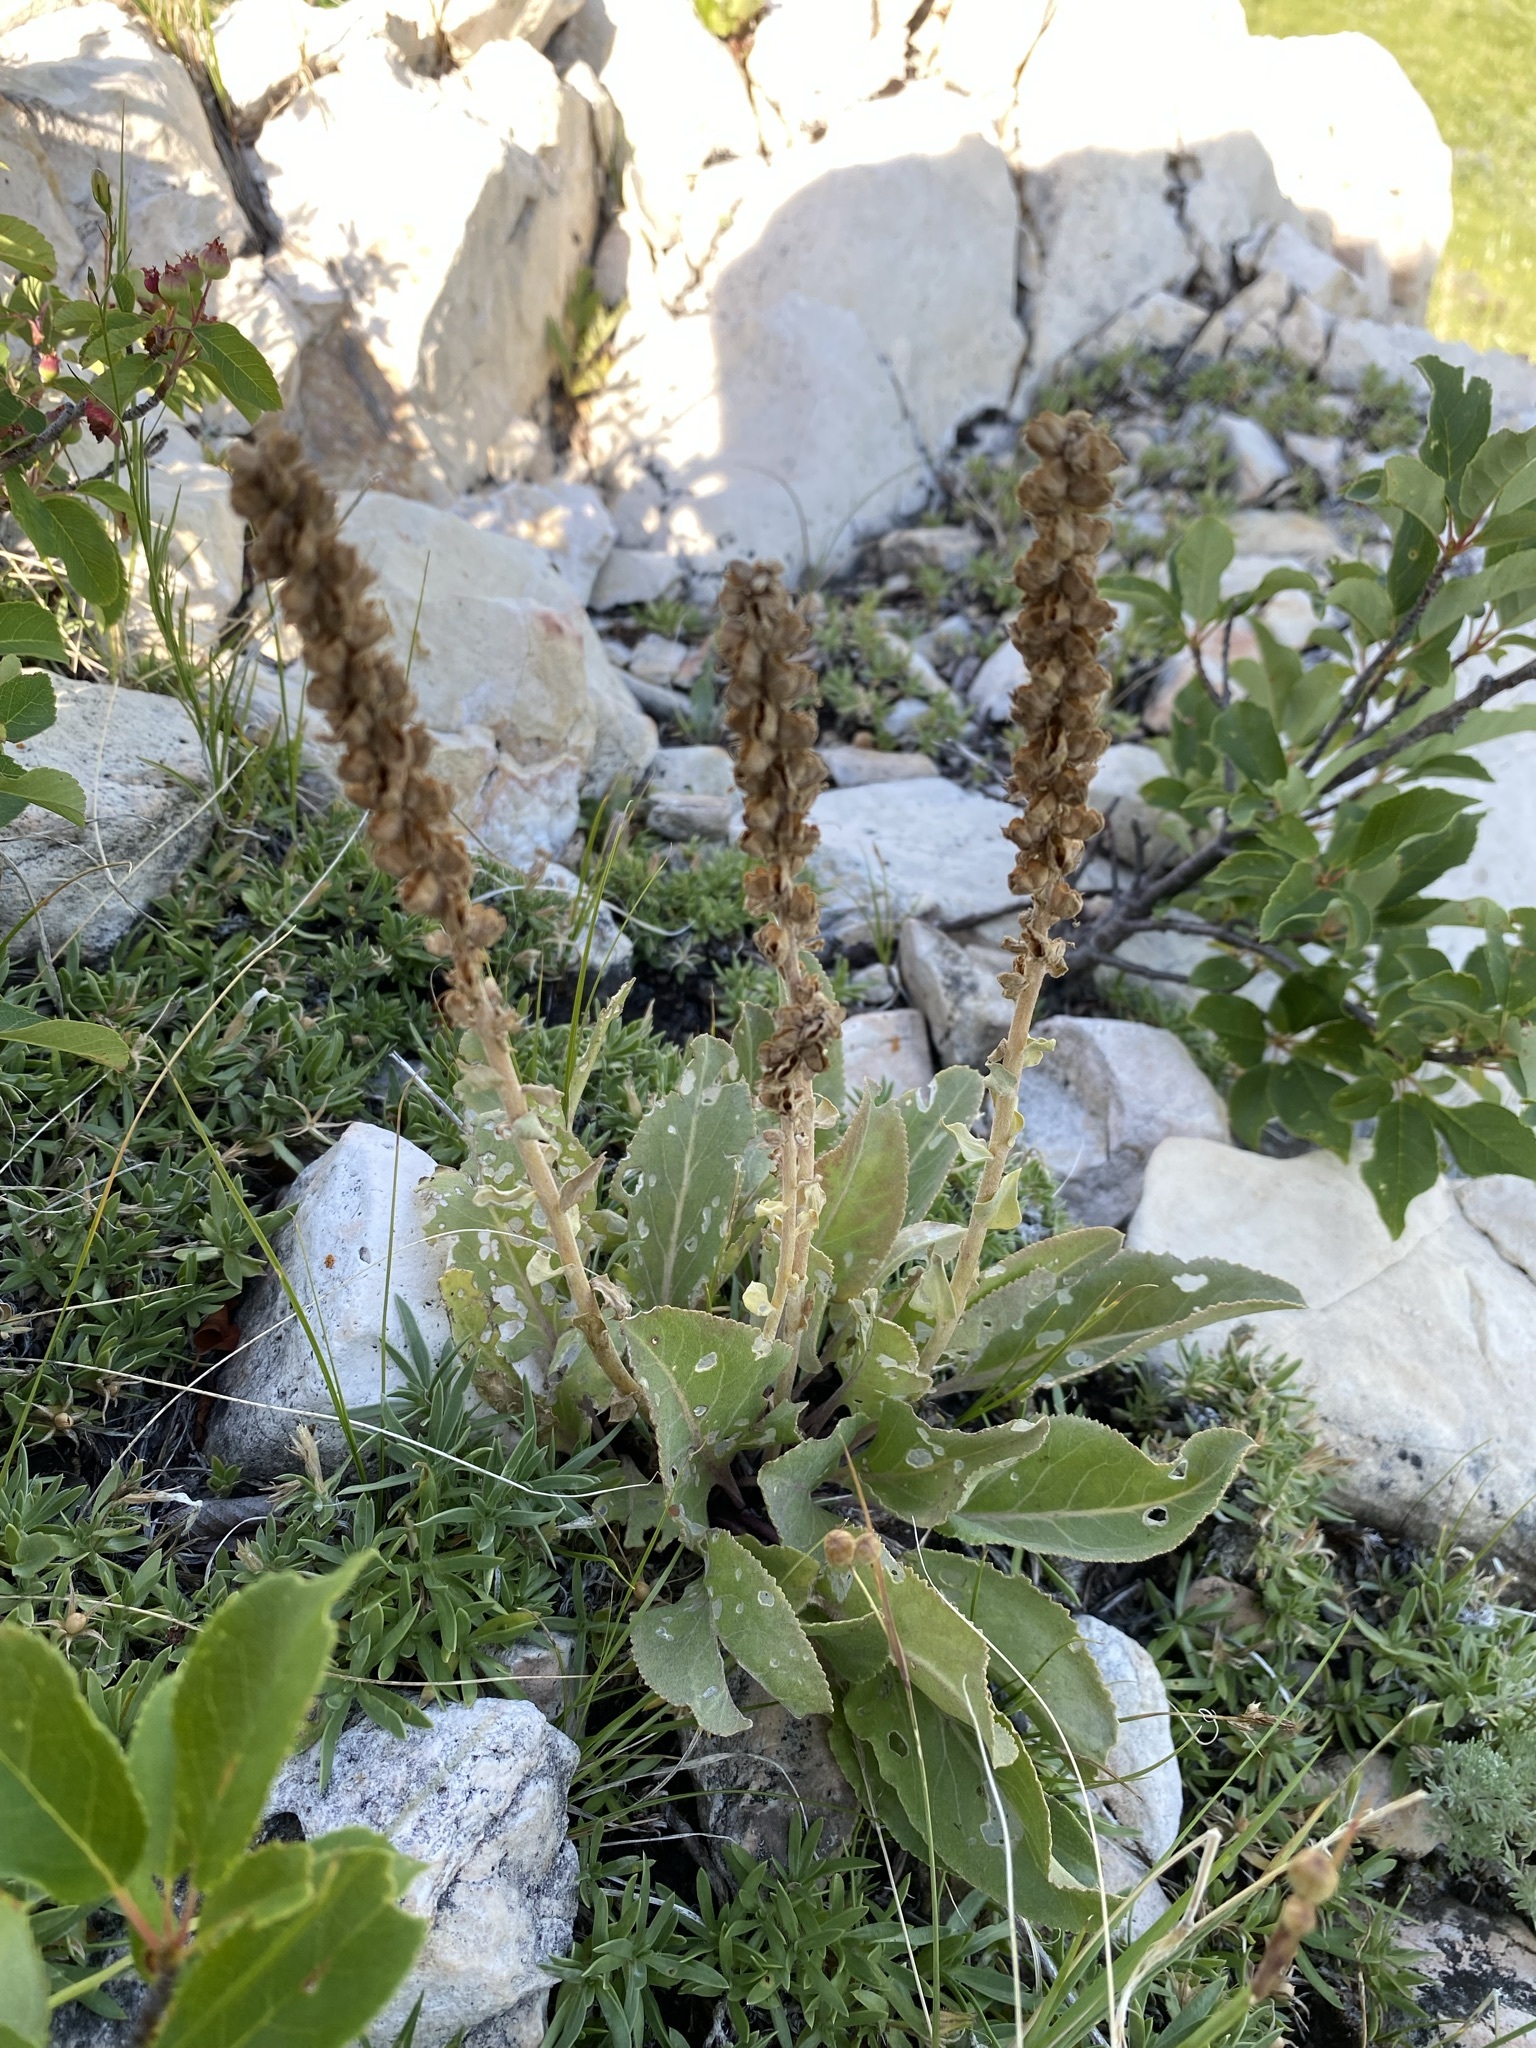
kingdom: Plantae
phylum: Tracheophyta
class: Magnoliopsida
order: Lamiales
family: Plantaginaceae
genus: Synthyris
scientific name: Synthyris wyomingensis
